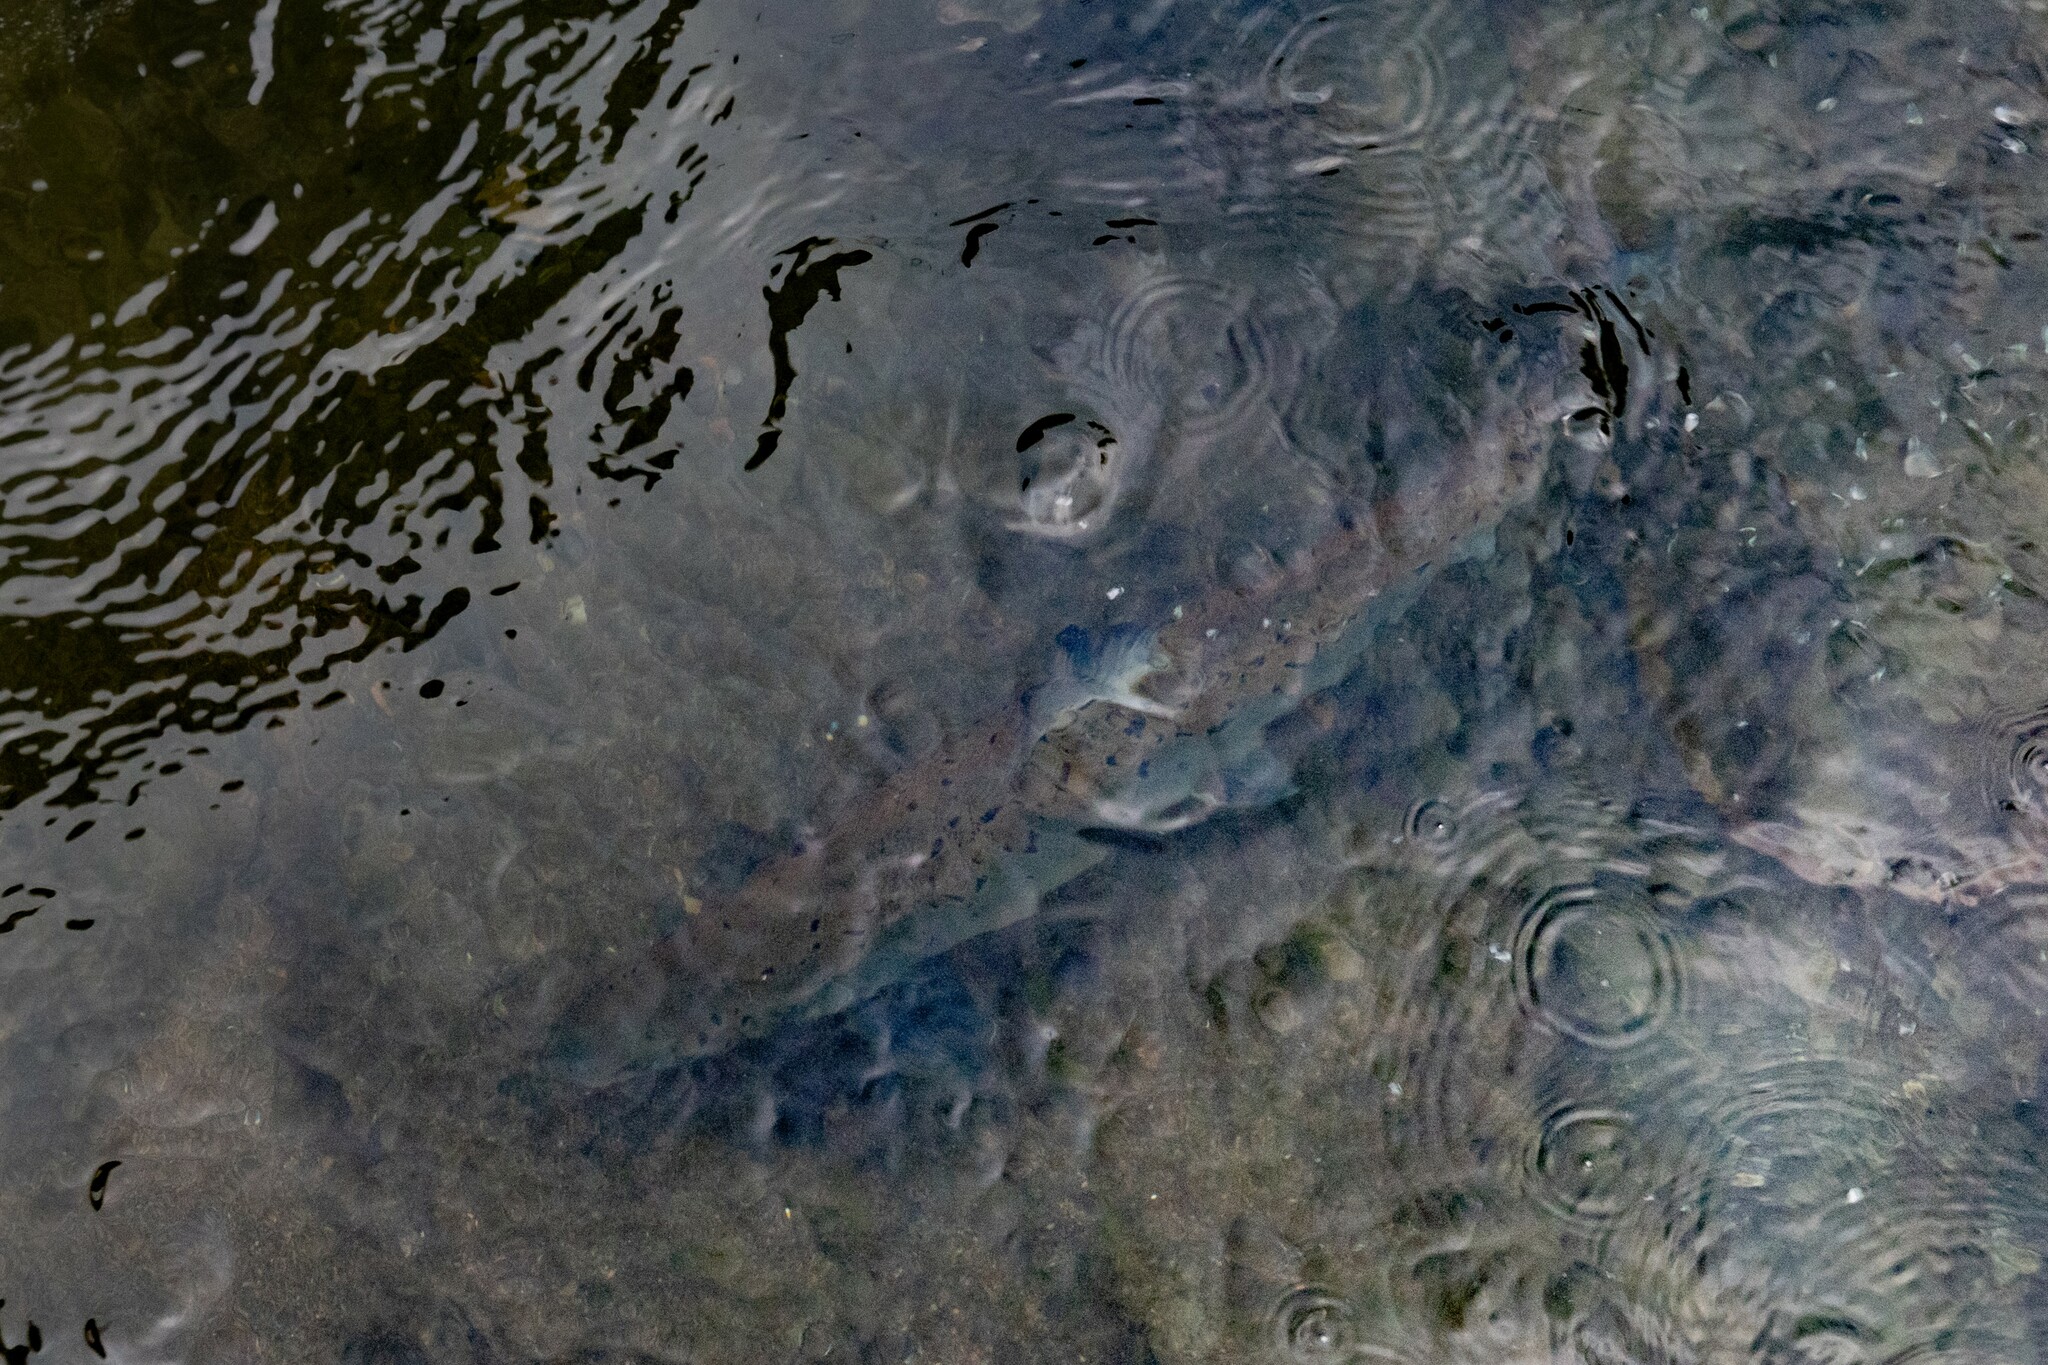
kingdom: Animalia
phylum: Chordata
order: Salmoniformes
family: Salmonidae
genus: Salmo
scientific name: Salmo salar
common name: Atlantic salmon
